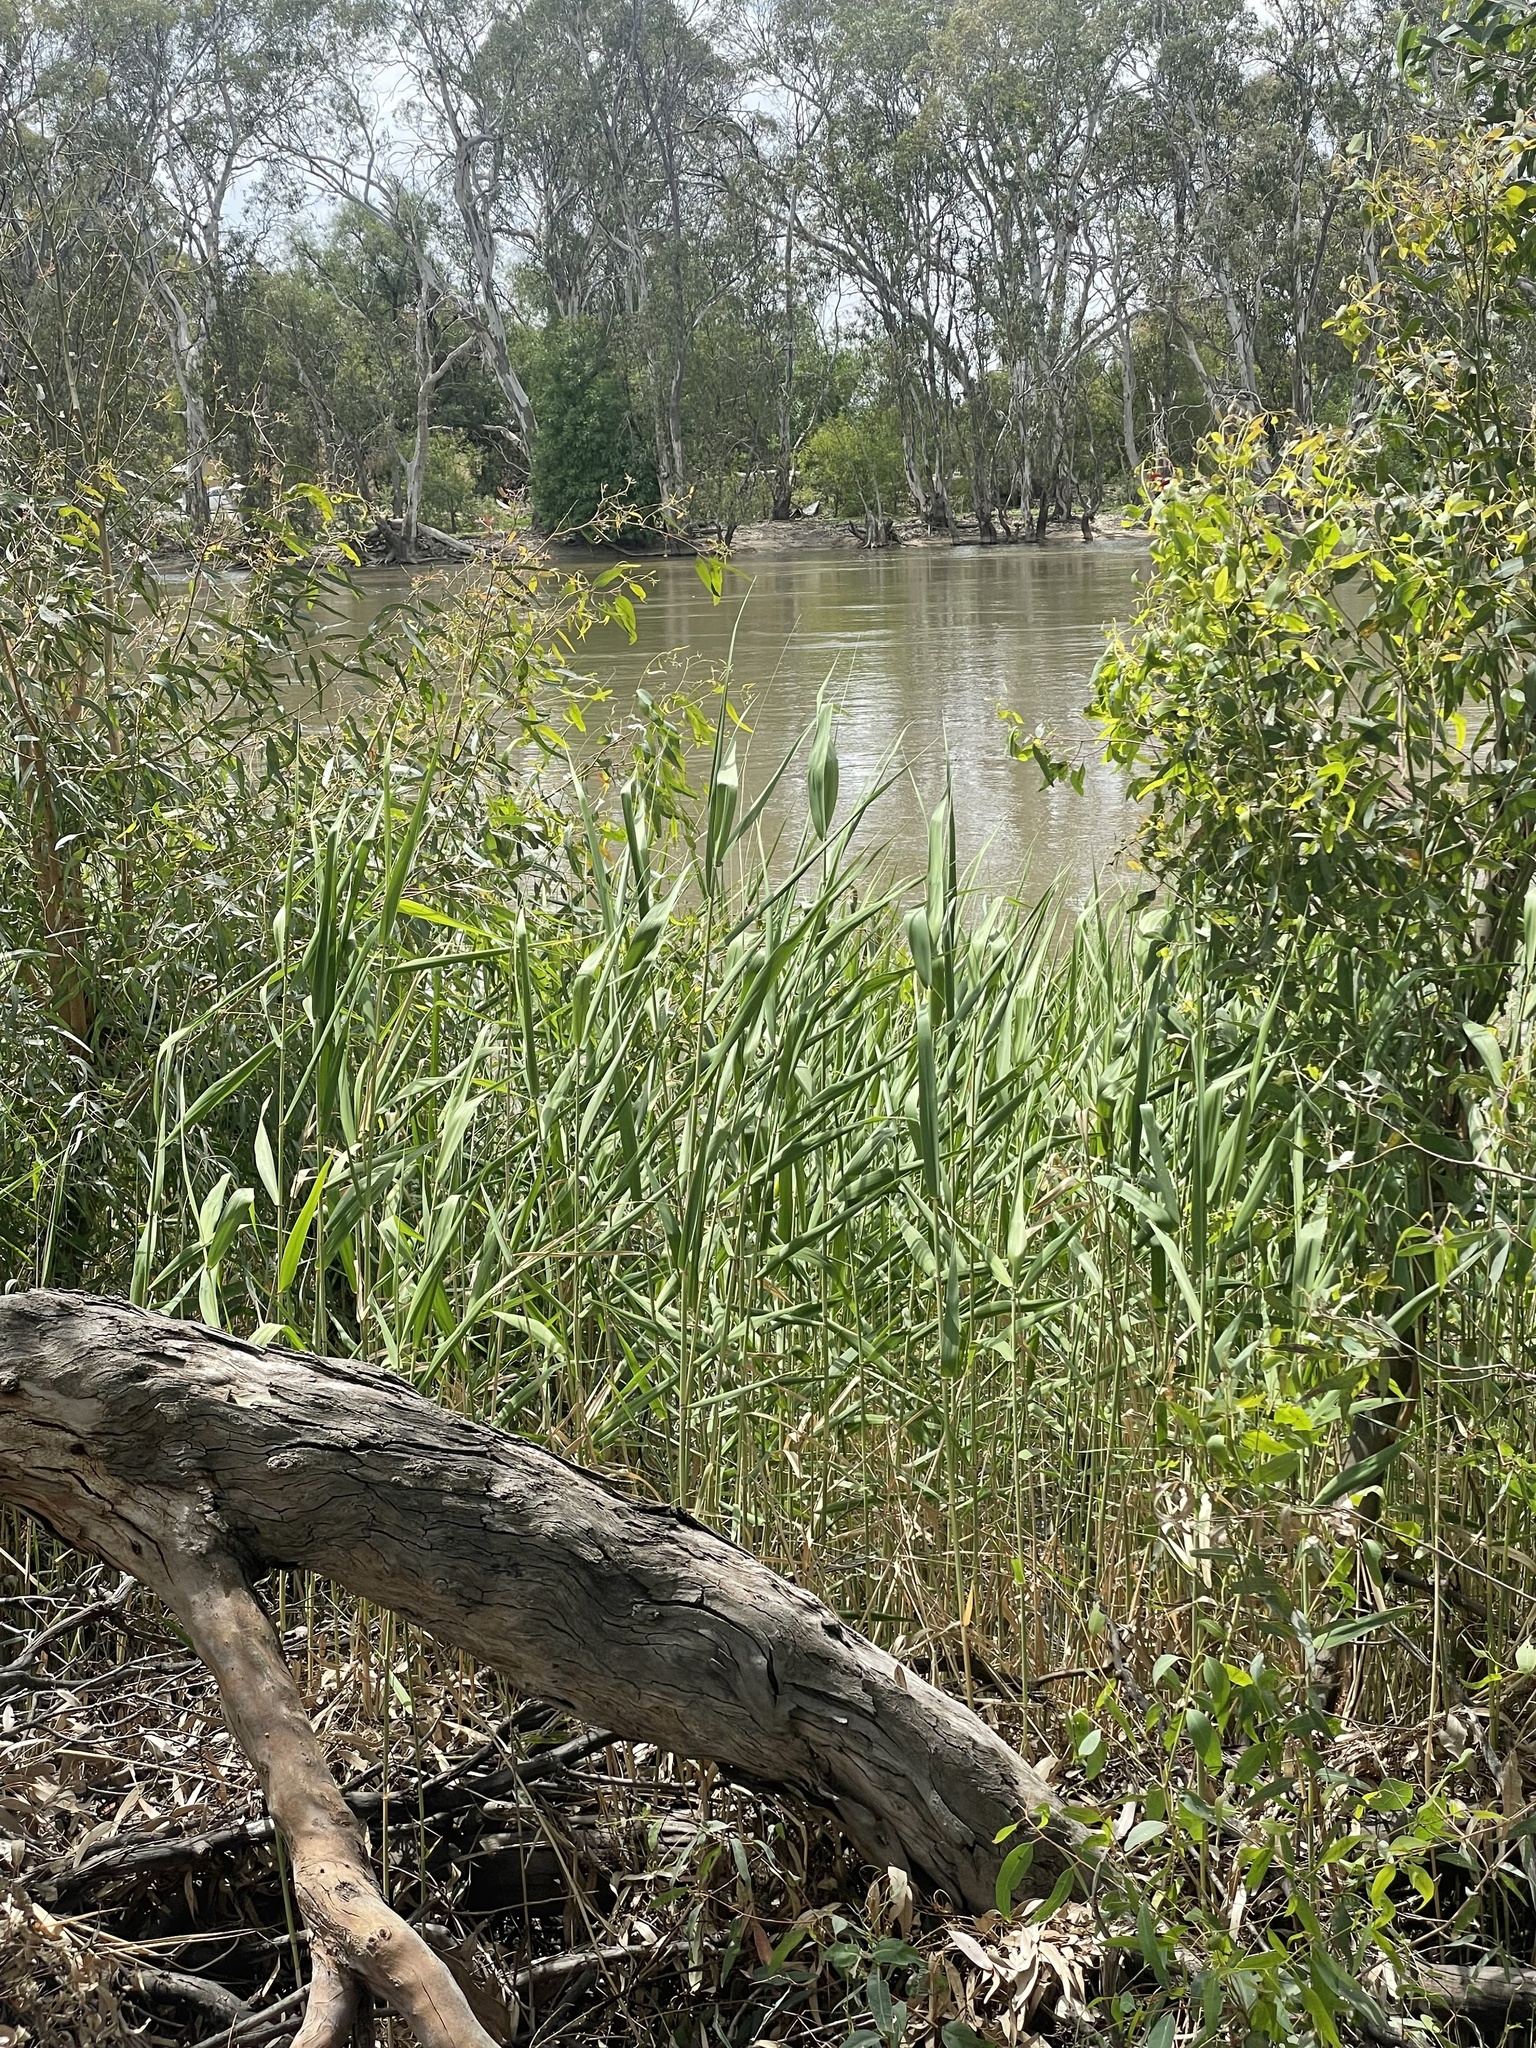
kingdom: Plantae
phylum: Tracheophyta
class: Liliopsida
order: Poales
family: Poaceae
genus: Phragmites
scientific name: Phragmites australis
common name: Common reed
